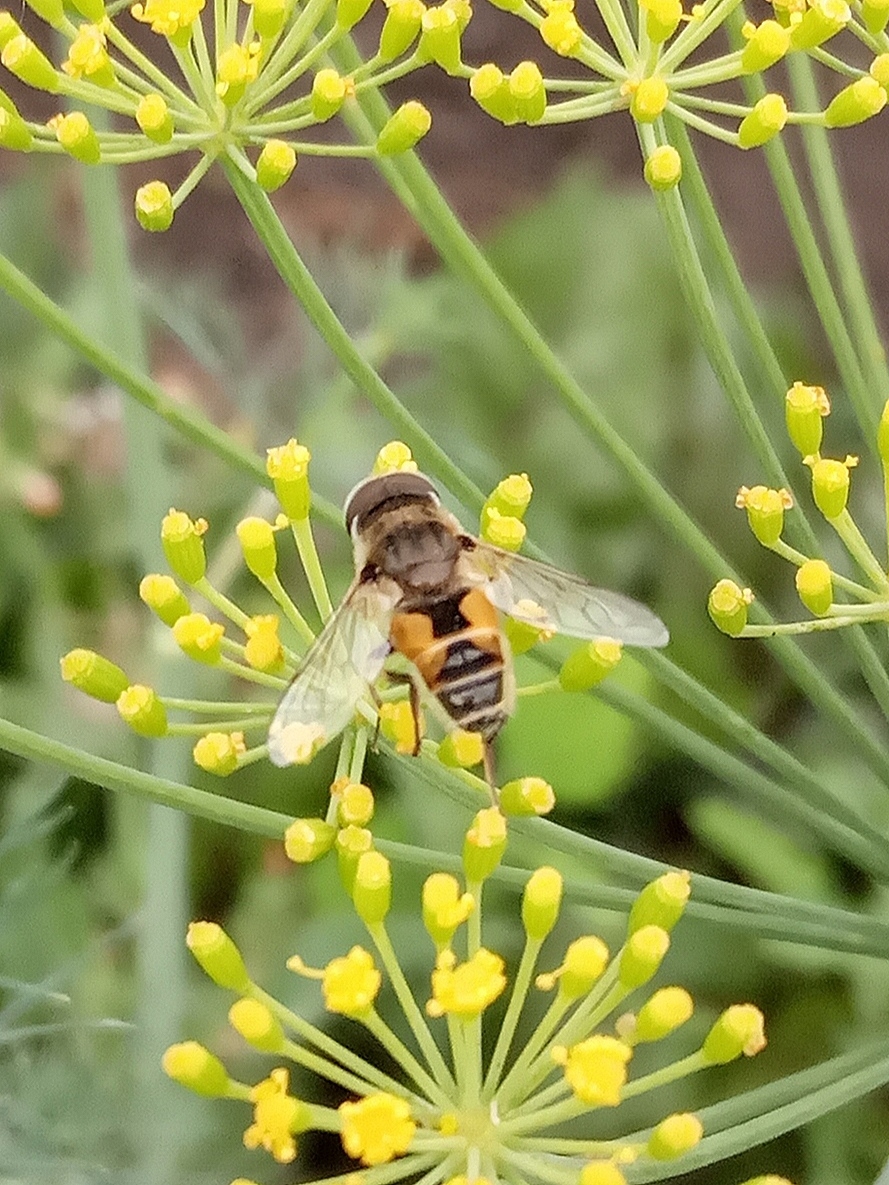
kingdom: Animalia
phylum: Arthropoda
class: Insecta
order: Diptera
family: Syrphidae
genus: Eristalis
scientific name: Eristalis arbustorum
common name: Hover fly
